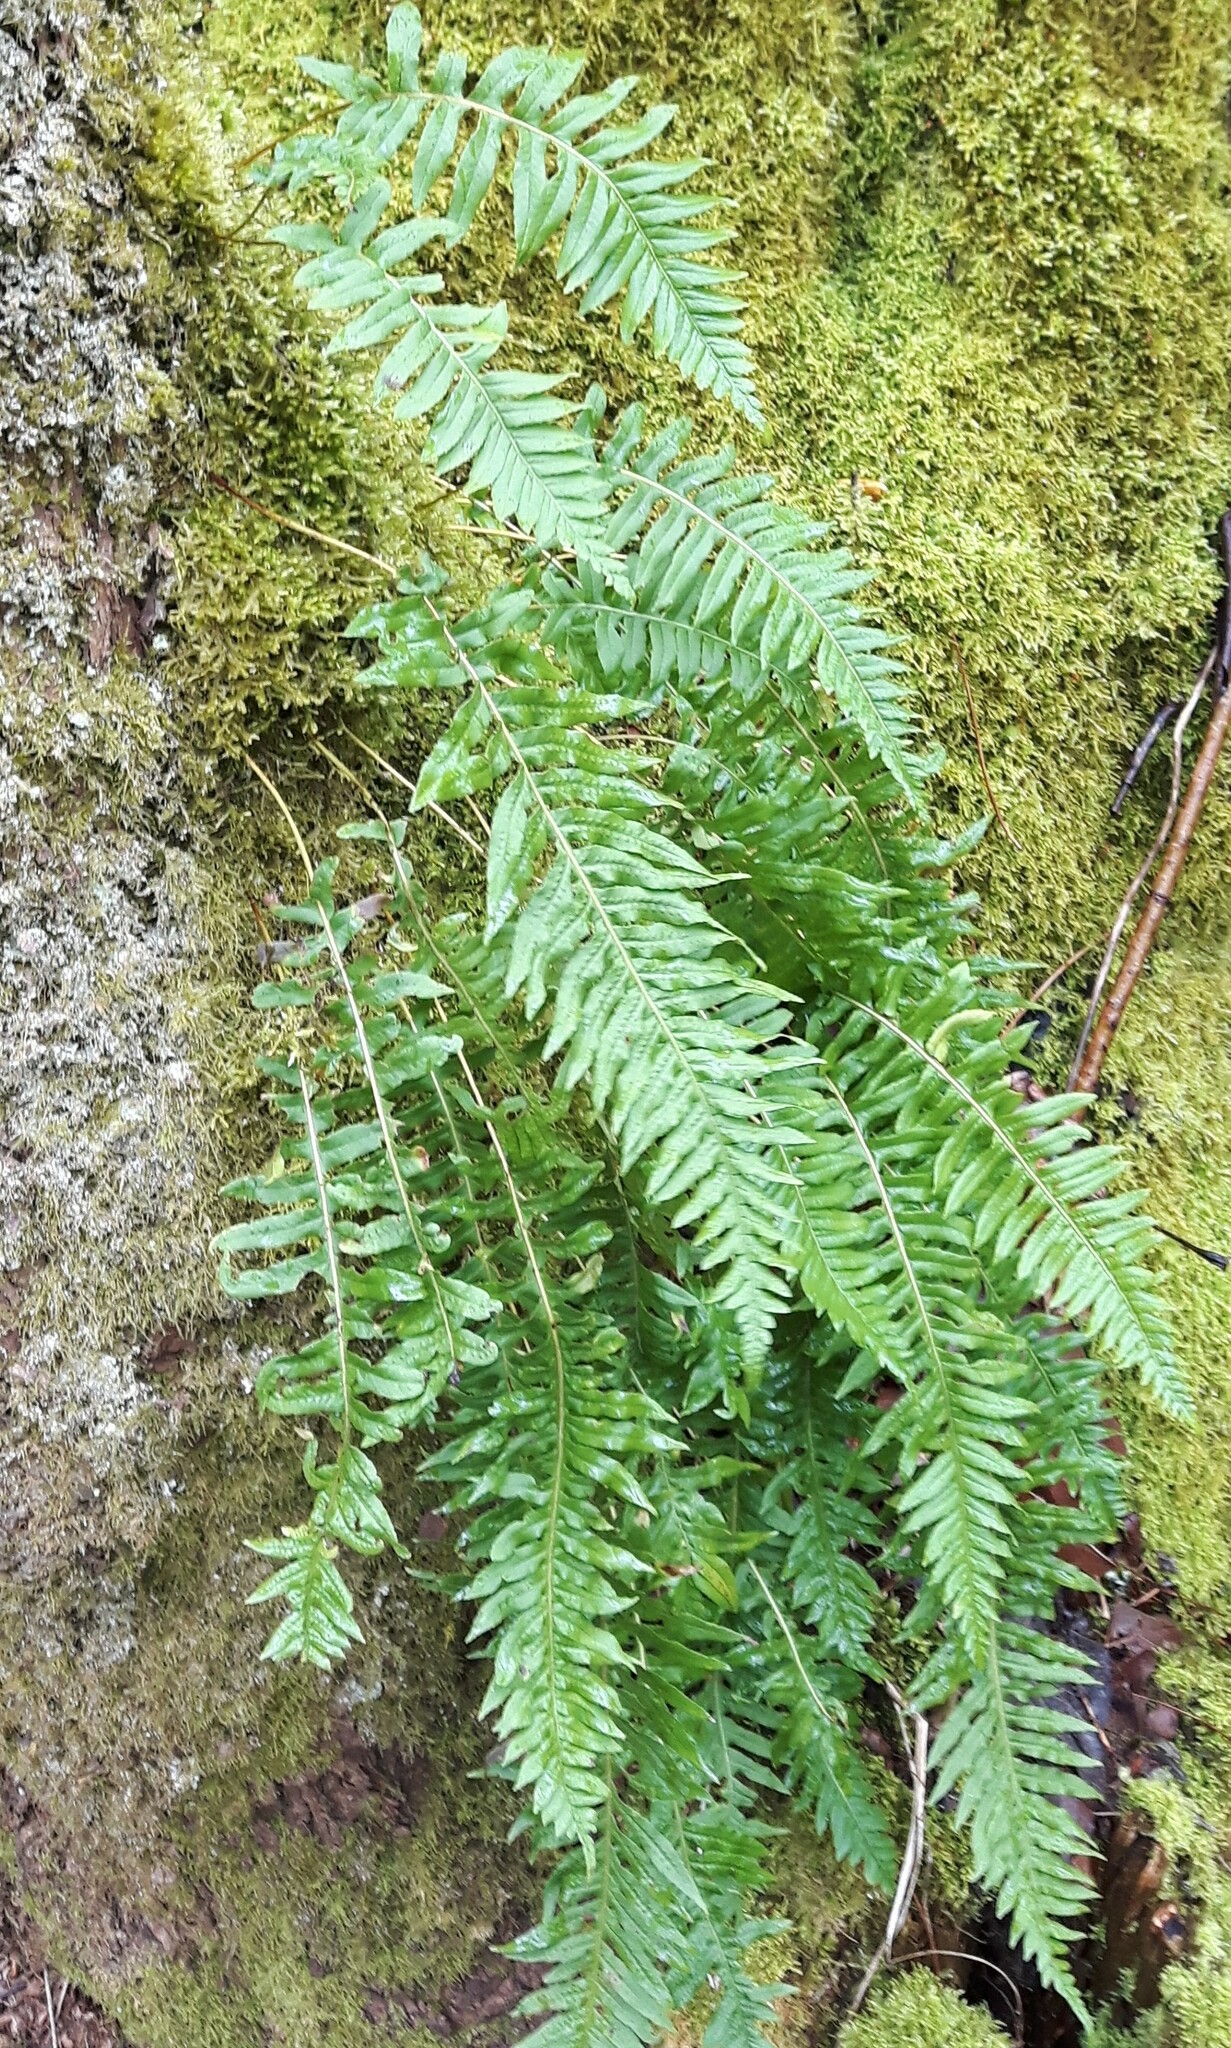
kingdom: Plantae
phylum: Tracheophyta
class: Polypodiopsida
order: Polypodiales
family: Polypodiaceae
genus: Polypodium
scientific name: Polypodium glycyrrhiza
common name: Licorice fern
